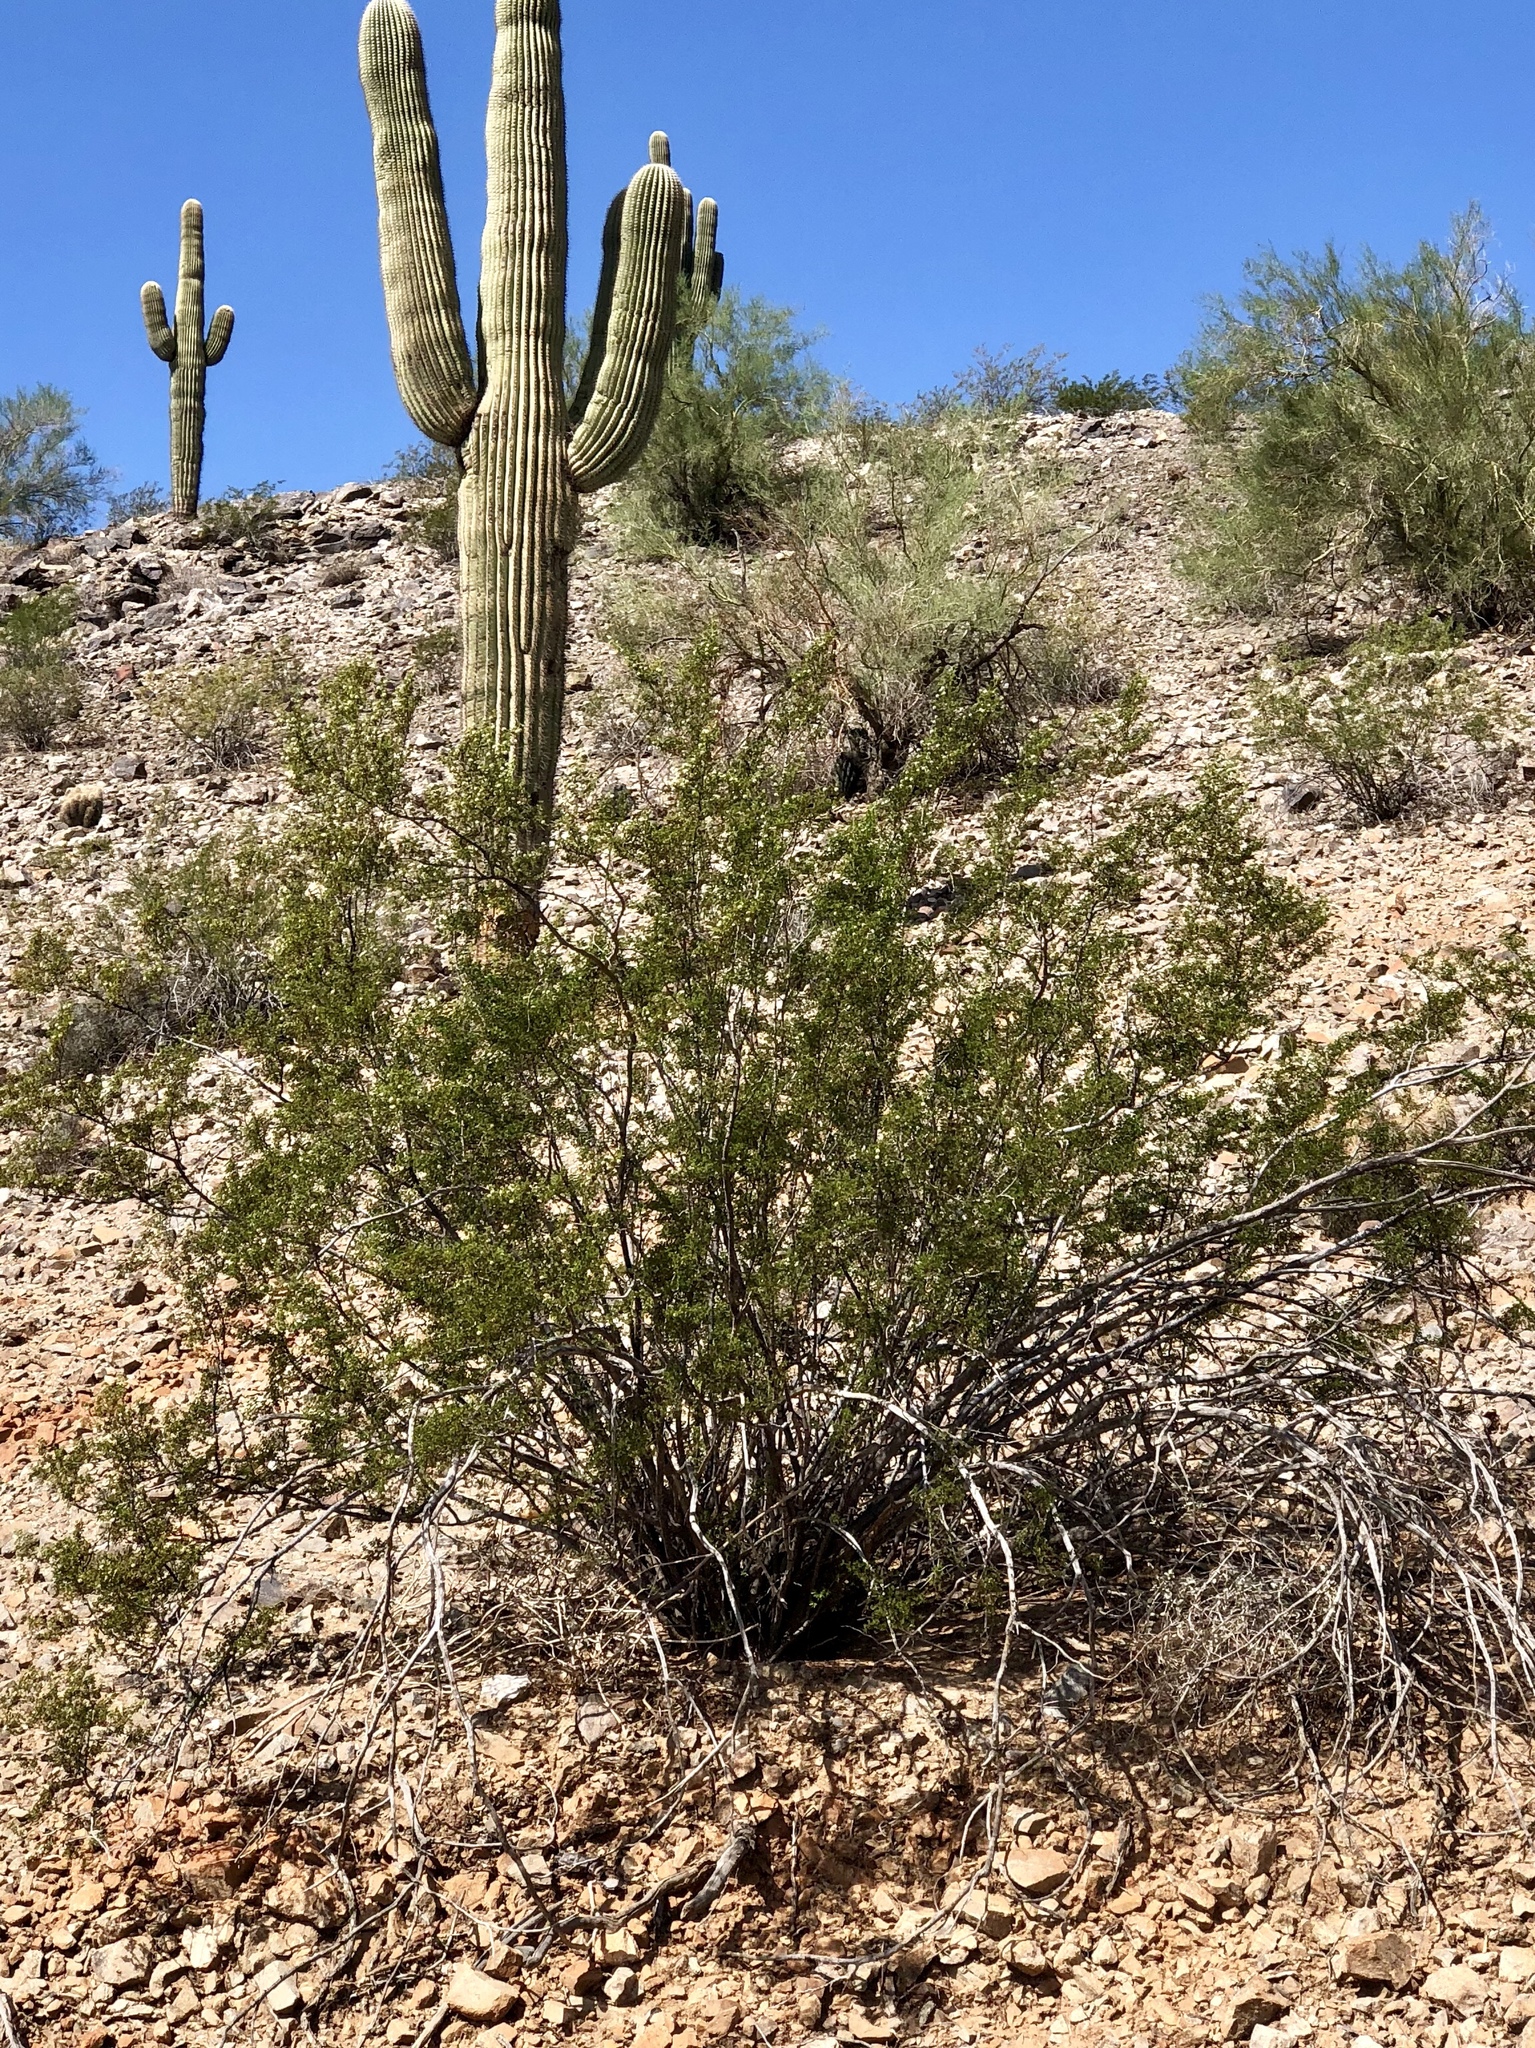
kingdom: Plantae
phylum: Tracheophyta
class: Magnoliopsida
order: Zygophyllales
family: Zygophyllaceae
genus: Larrea
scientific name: Larrea tridentata
